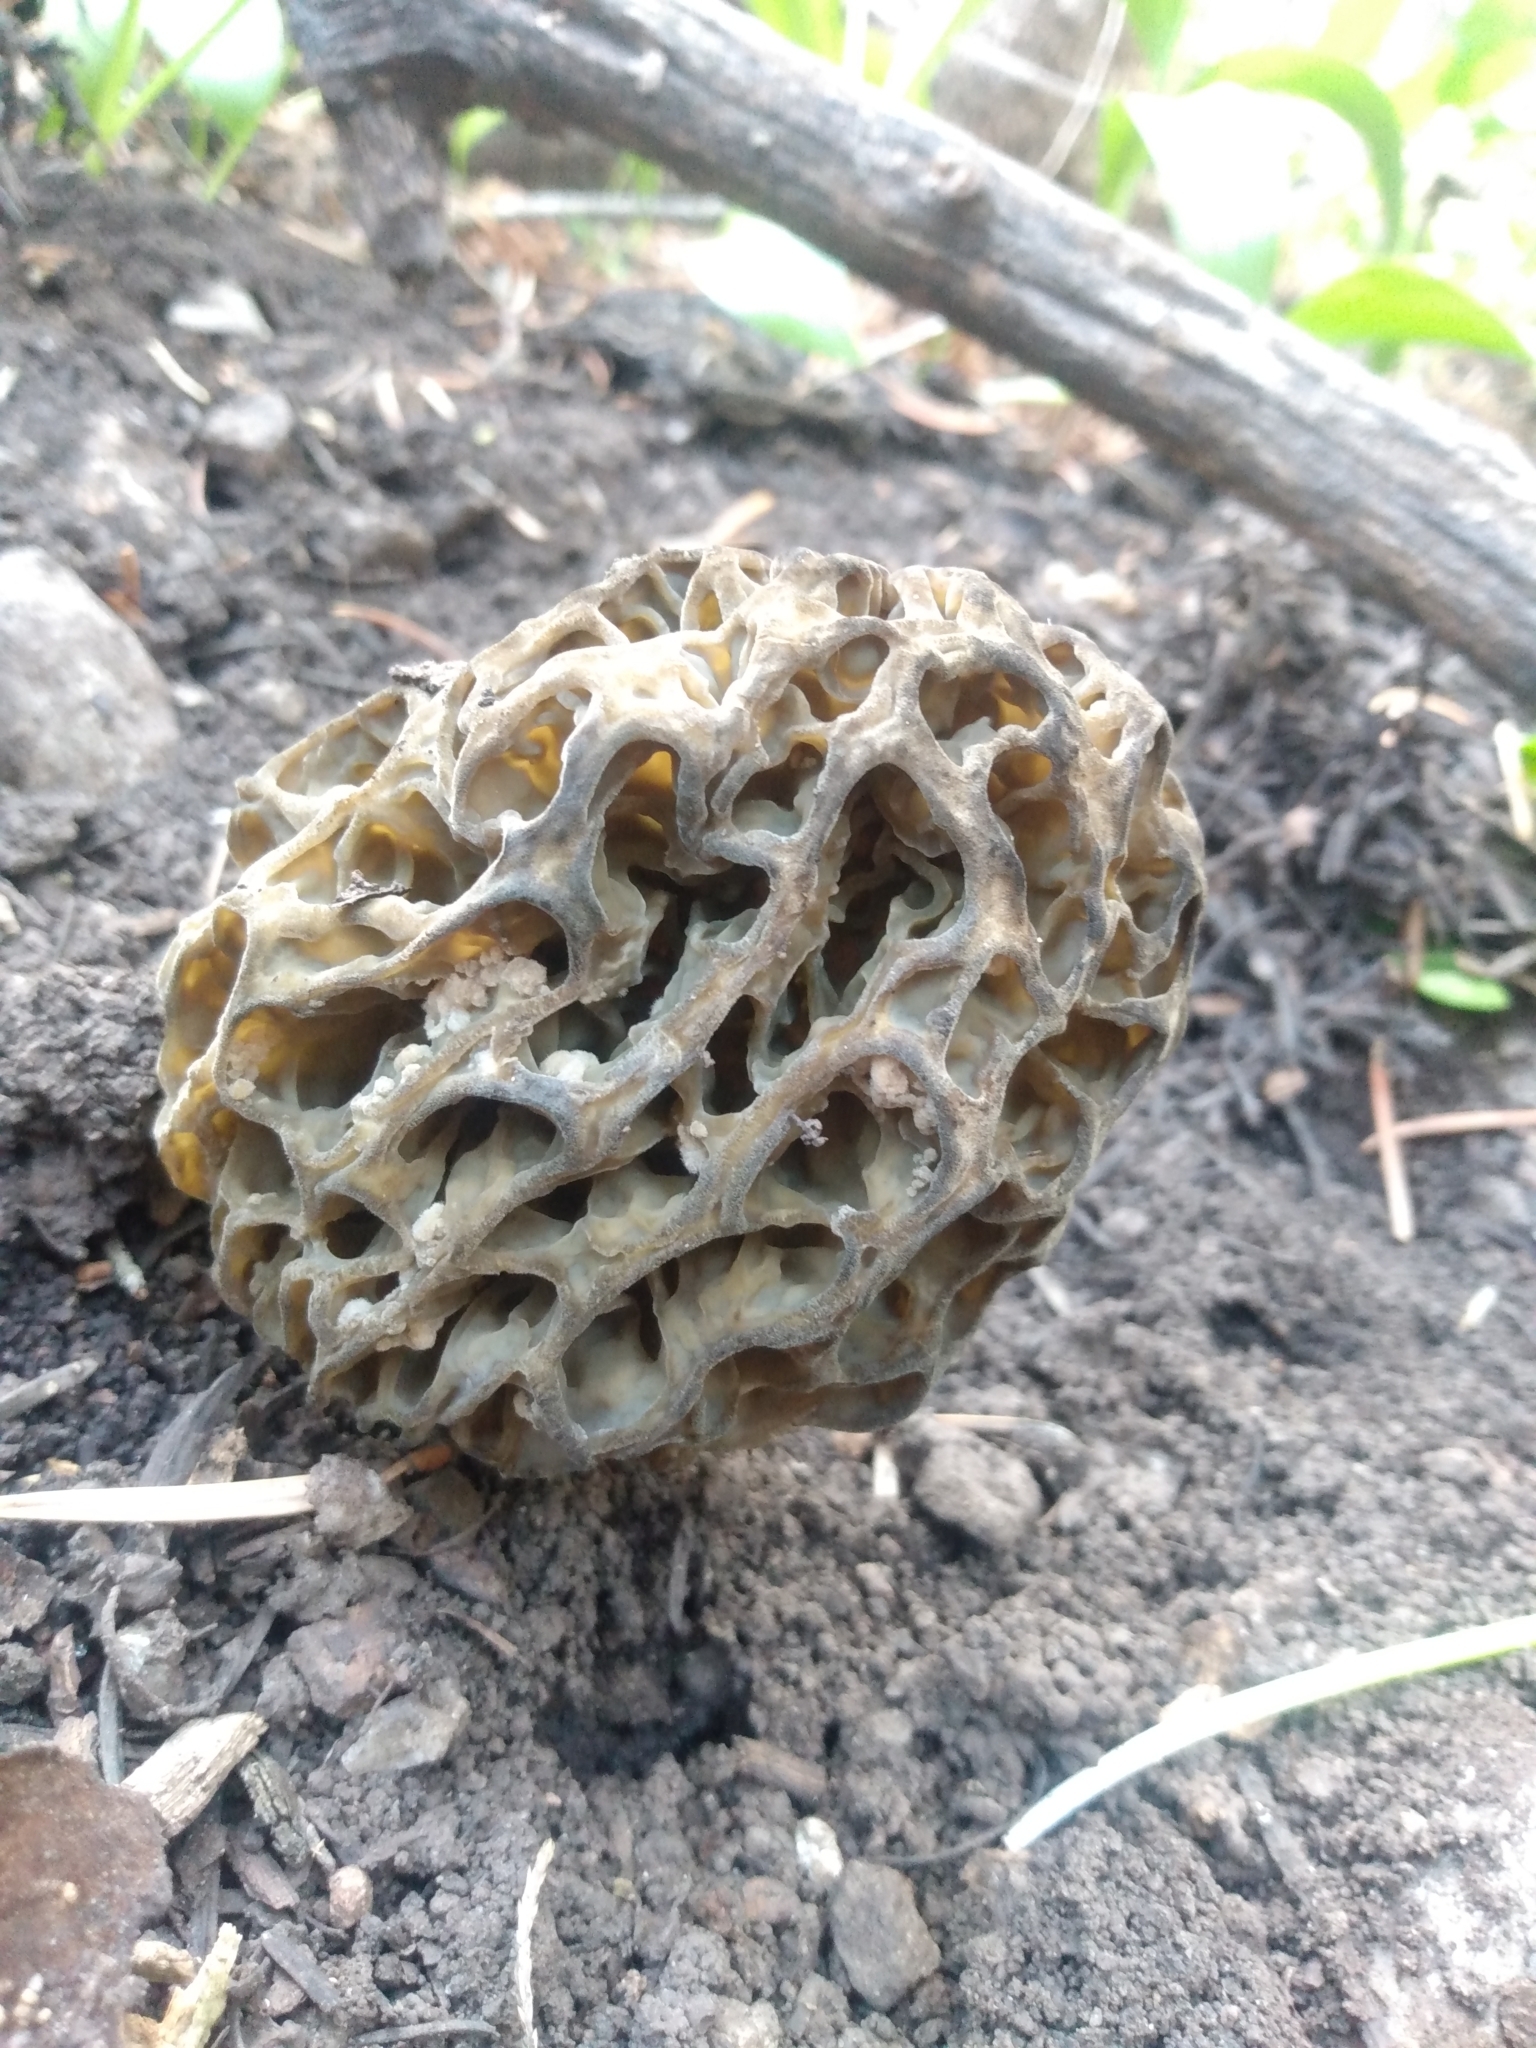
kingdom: Fungi
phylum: Ascomycota
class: Pezizomycetes
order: Pezizales
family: Morchellaceae
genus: Morchella
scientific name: Morchella snyderi
